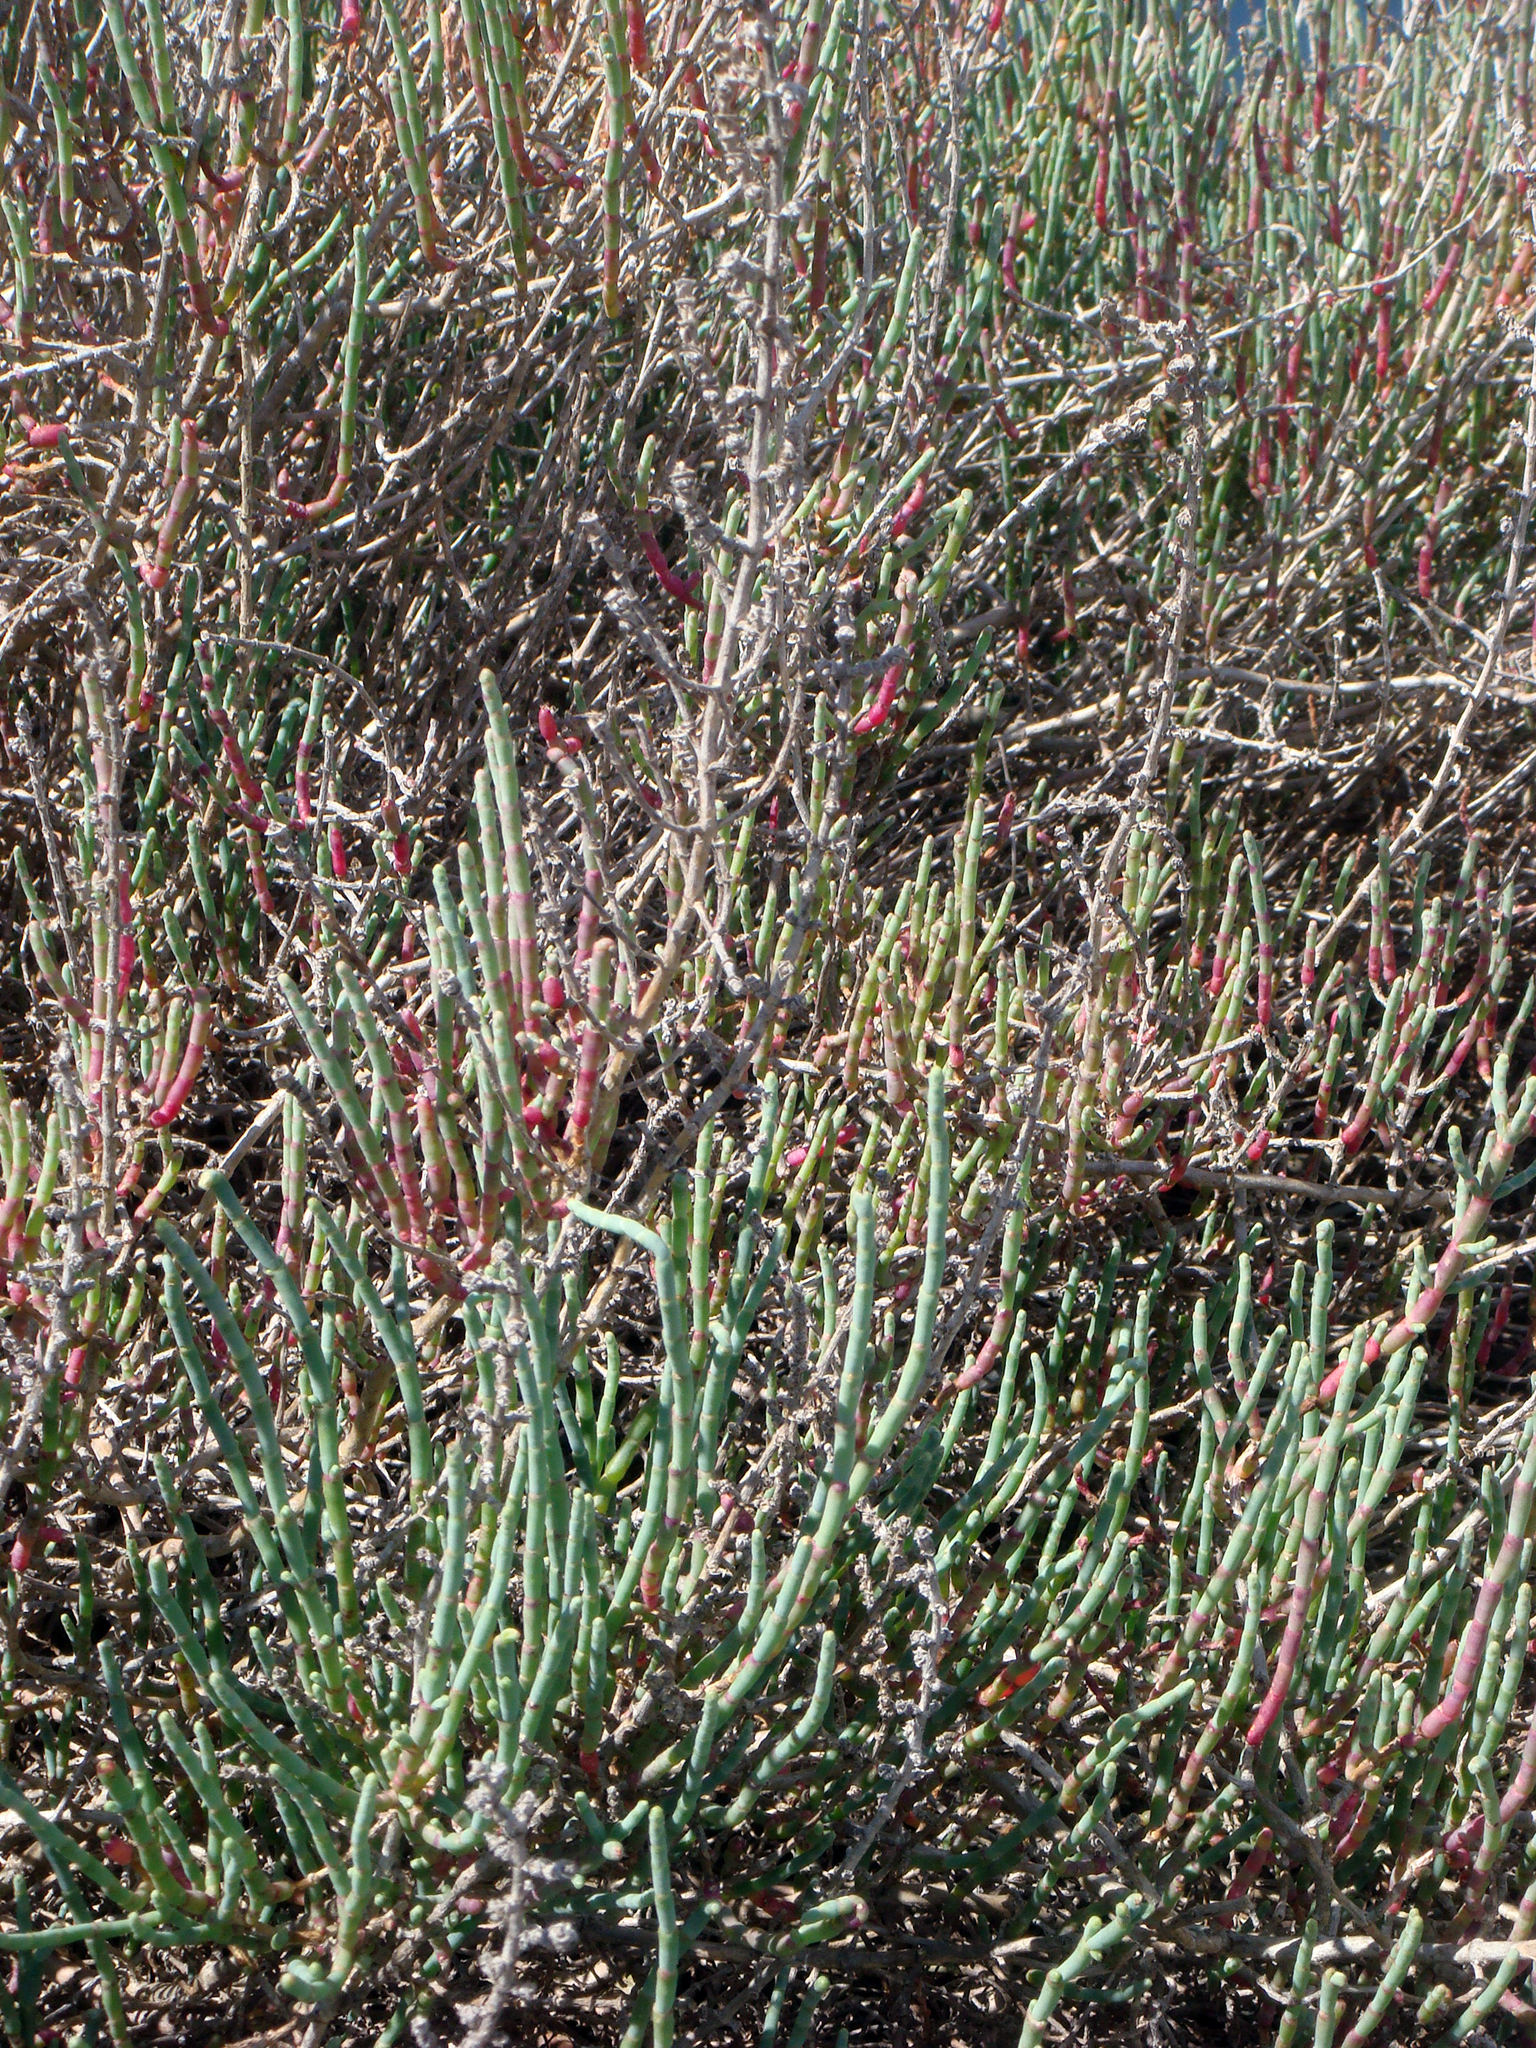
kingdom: Plantae
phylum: Tracheophyta
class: Magnoliopsida
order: Caryophyllales
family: Amaranthaceae
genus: Salicornia
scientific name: Salicornia europaea
